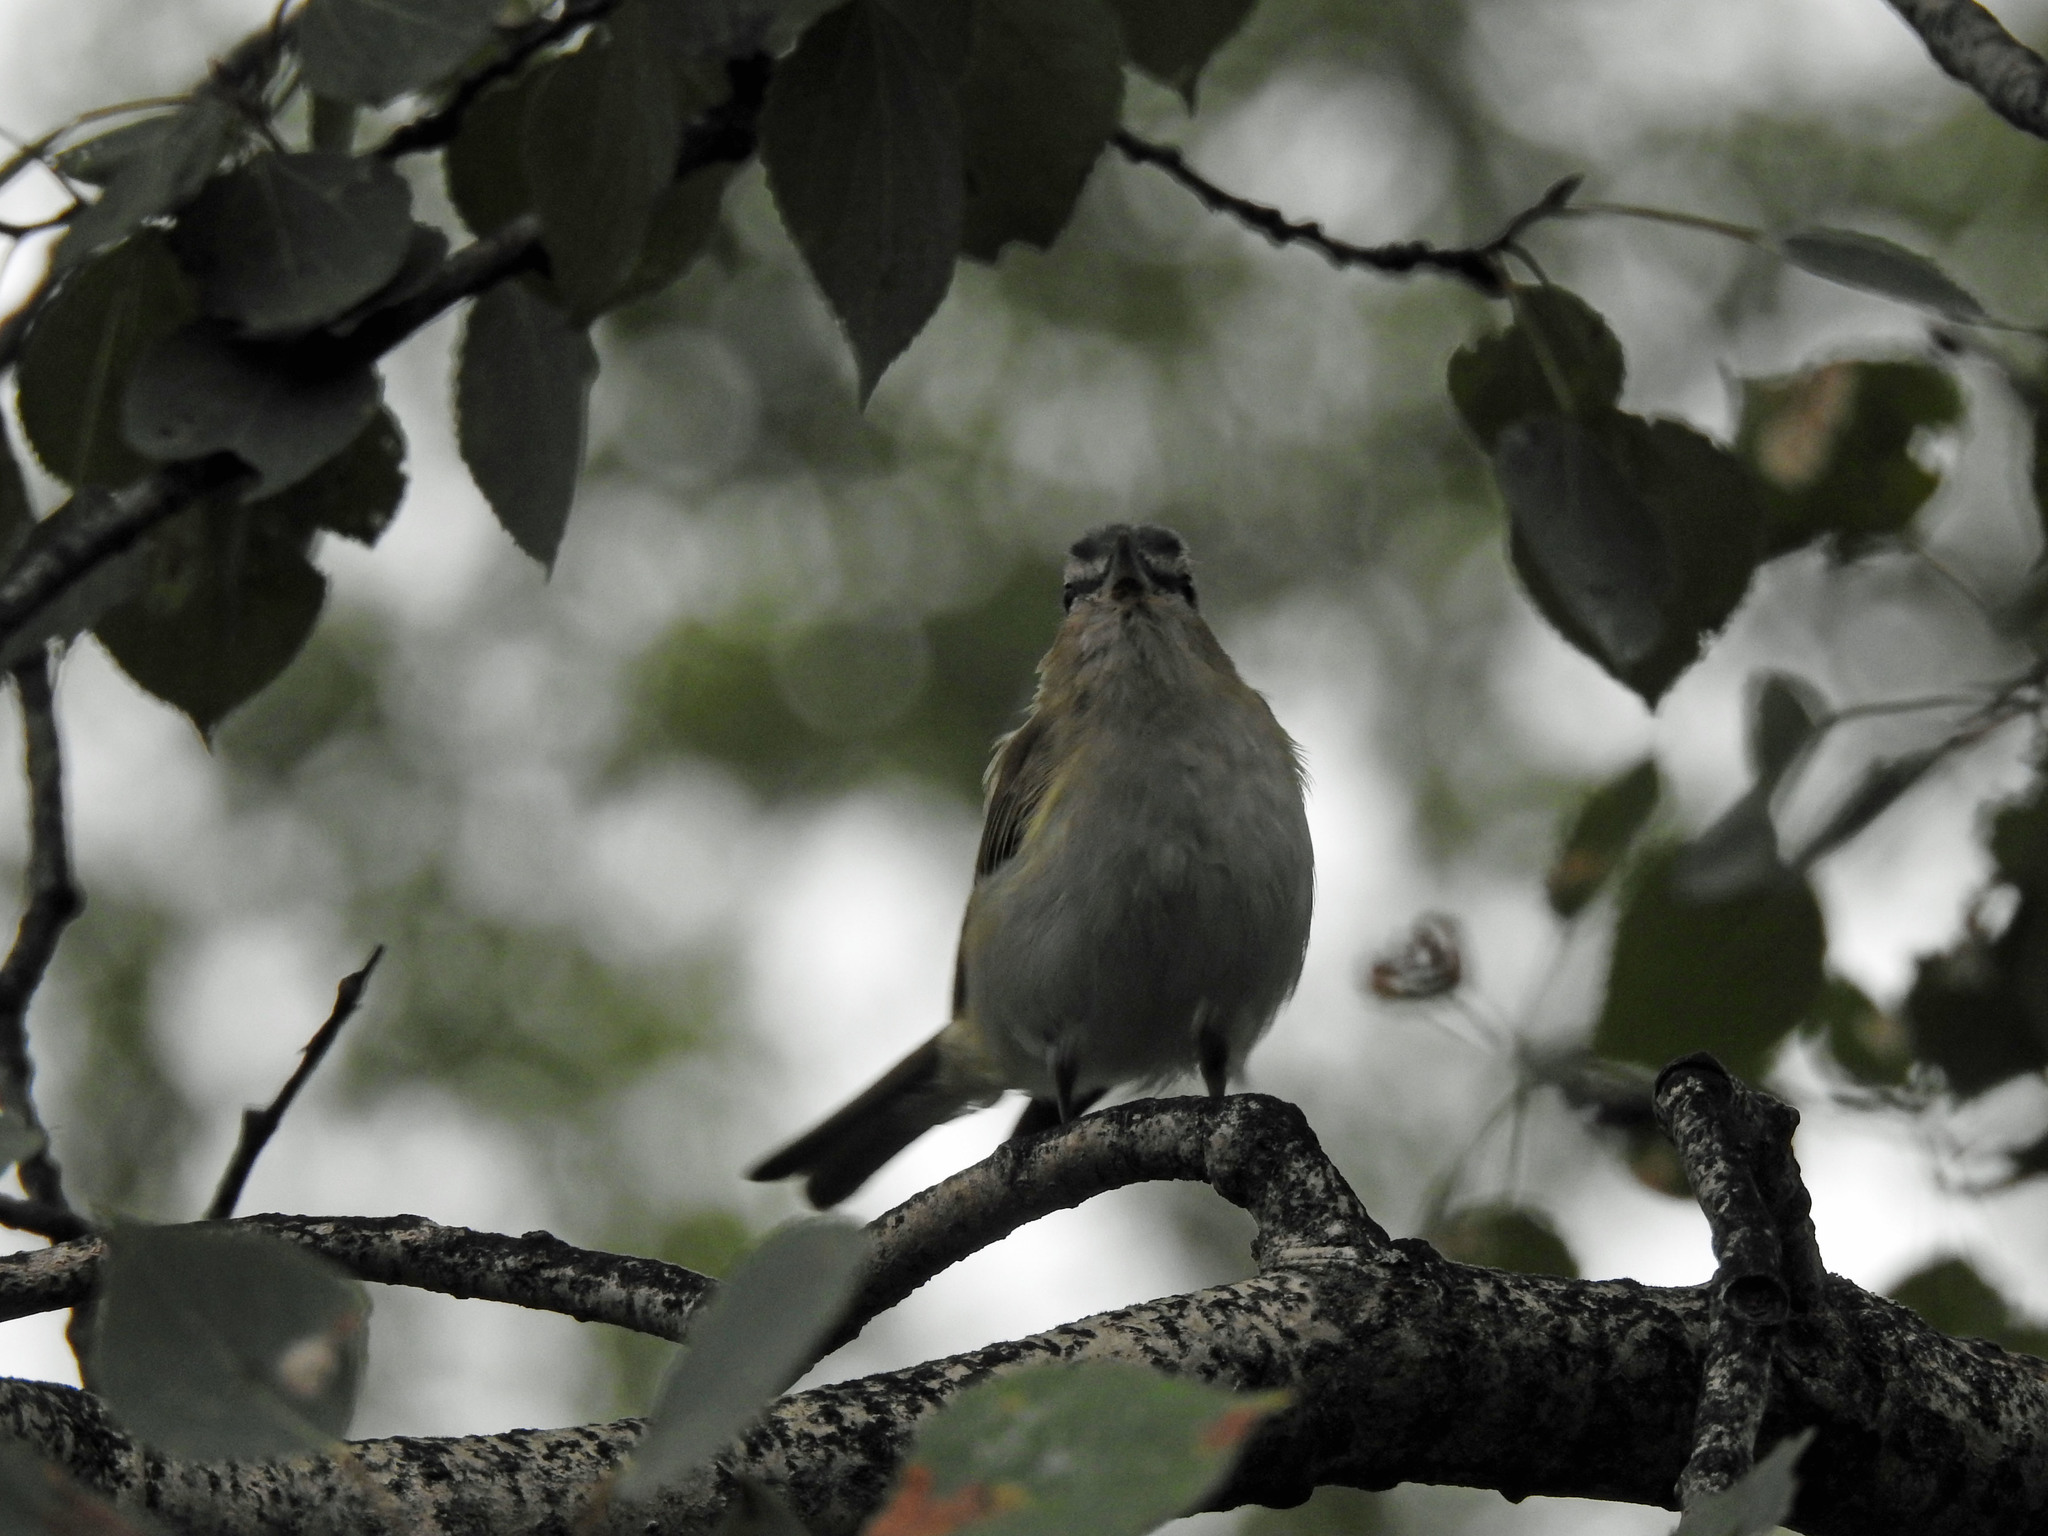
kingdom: Animalia
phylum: Chordata
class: Aves
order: Passeriformes
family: Vireonidae
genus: Vireo
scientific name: Vireo olivaceus
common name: Red-eyed vireo
